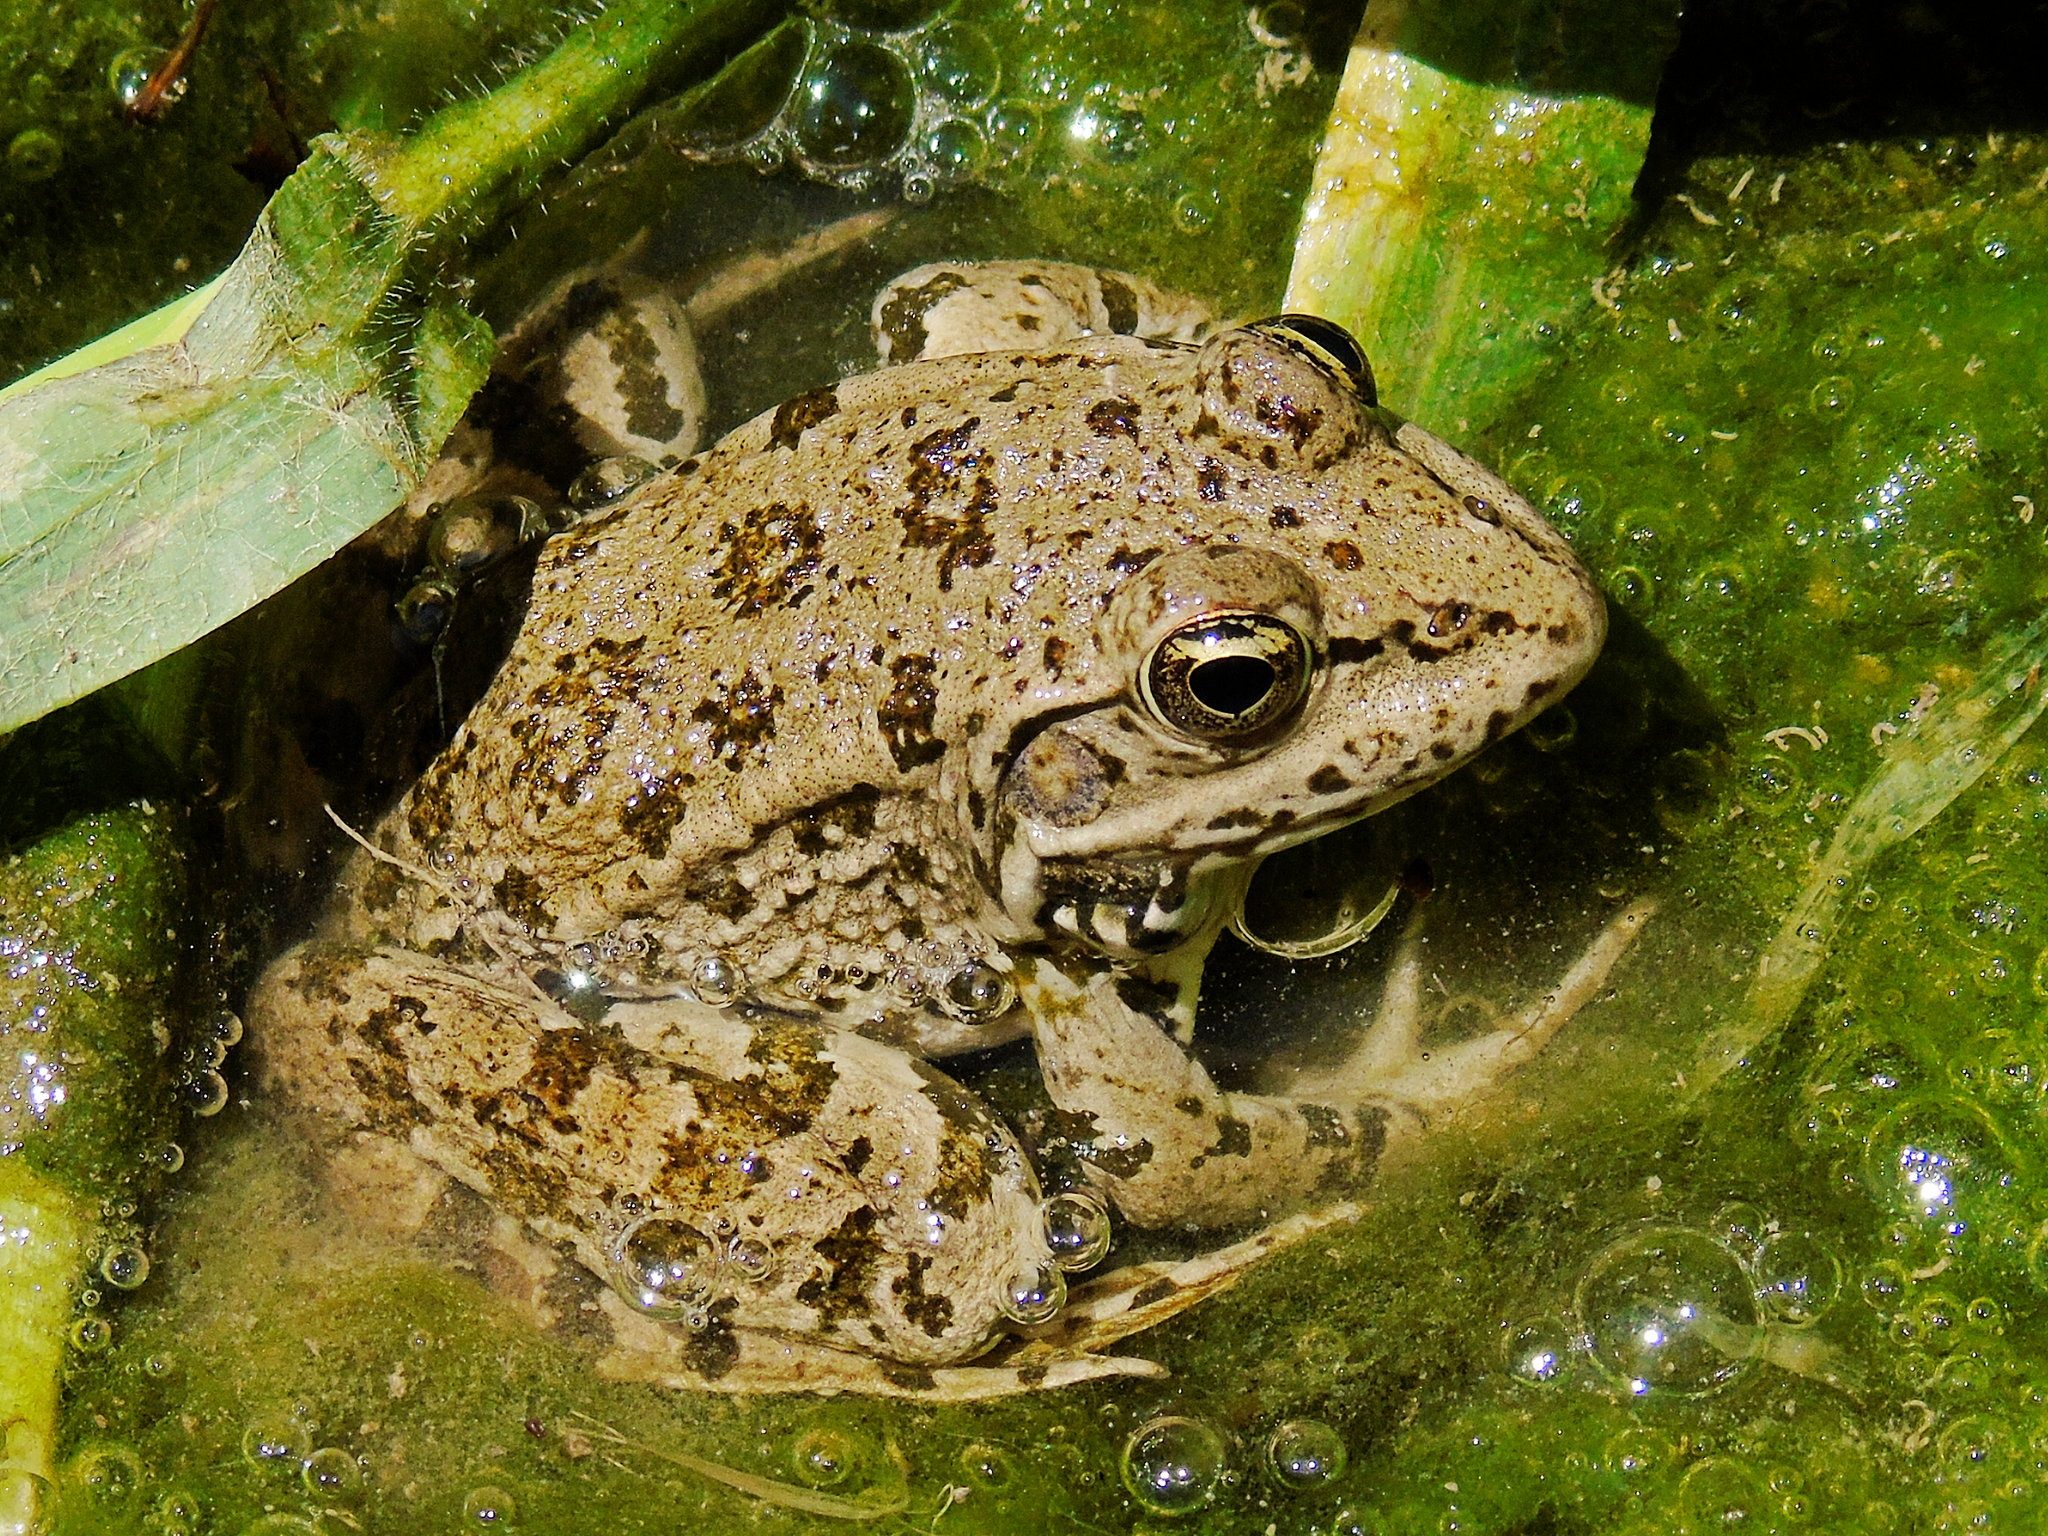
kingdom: Animalia
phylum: Chordata
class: Amphibia
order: Anura
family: Ranidae
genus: Pelophylax
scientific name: Pelophylax ridibundus
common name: Marsh frog
